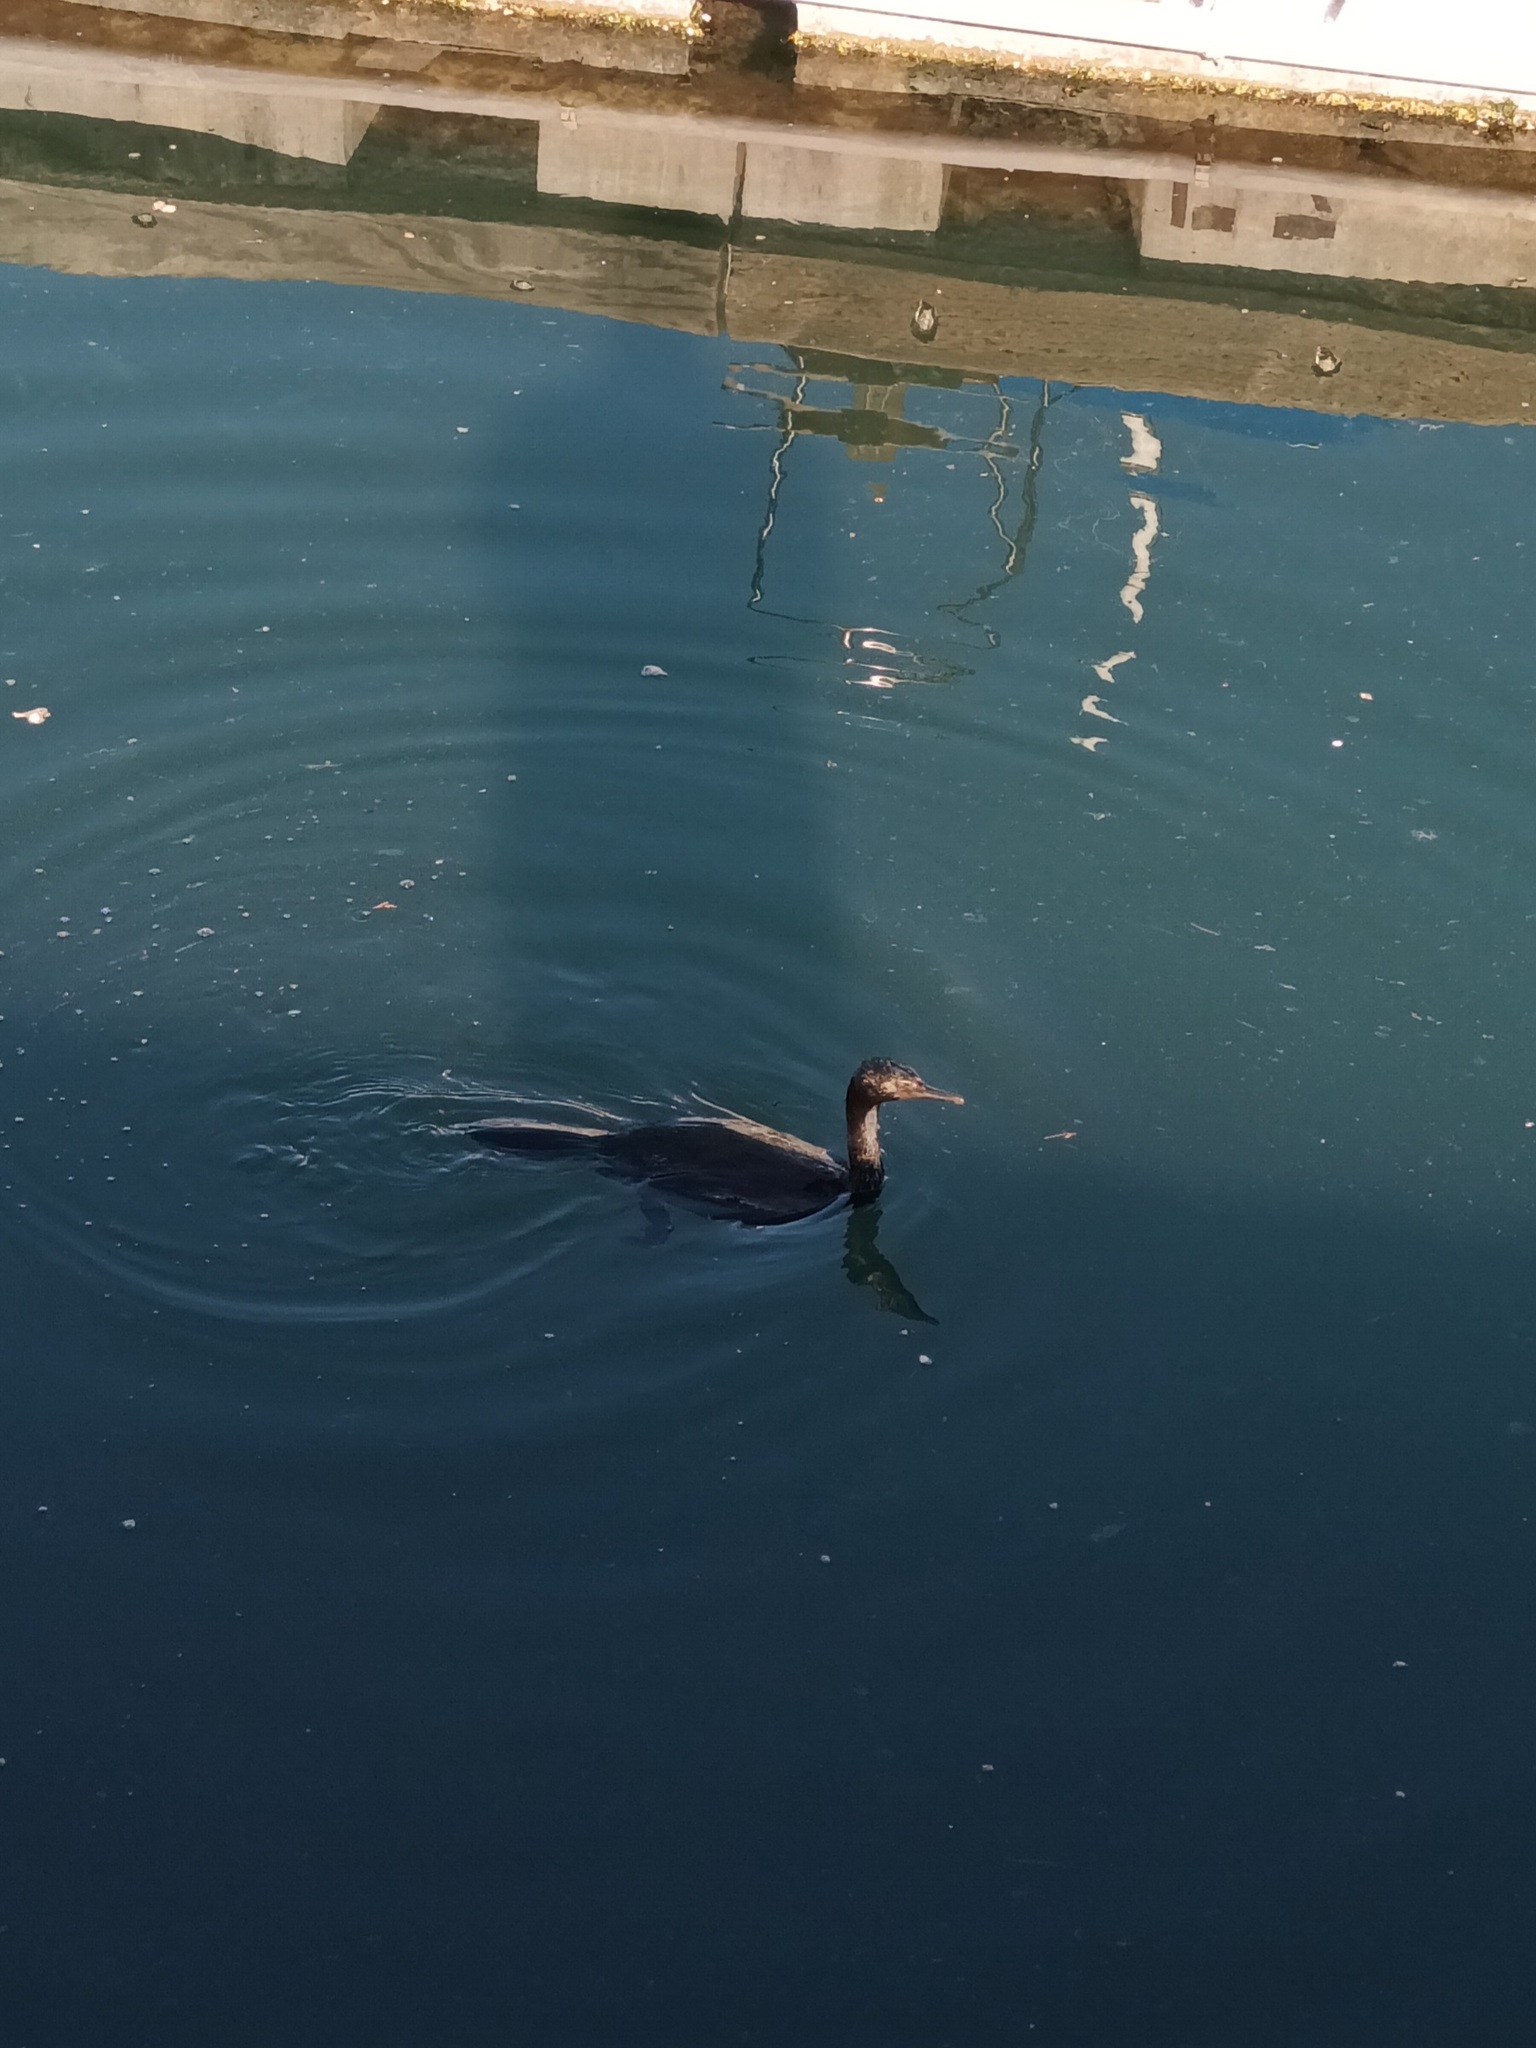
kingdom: Animalia
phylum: Chordata
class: Aves
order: Suliformes
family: Phalacrocoracidae
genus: Urile
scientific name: Urile penicillatus
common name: Brandt's cormorant
